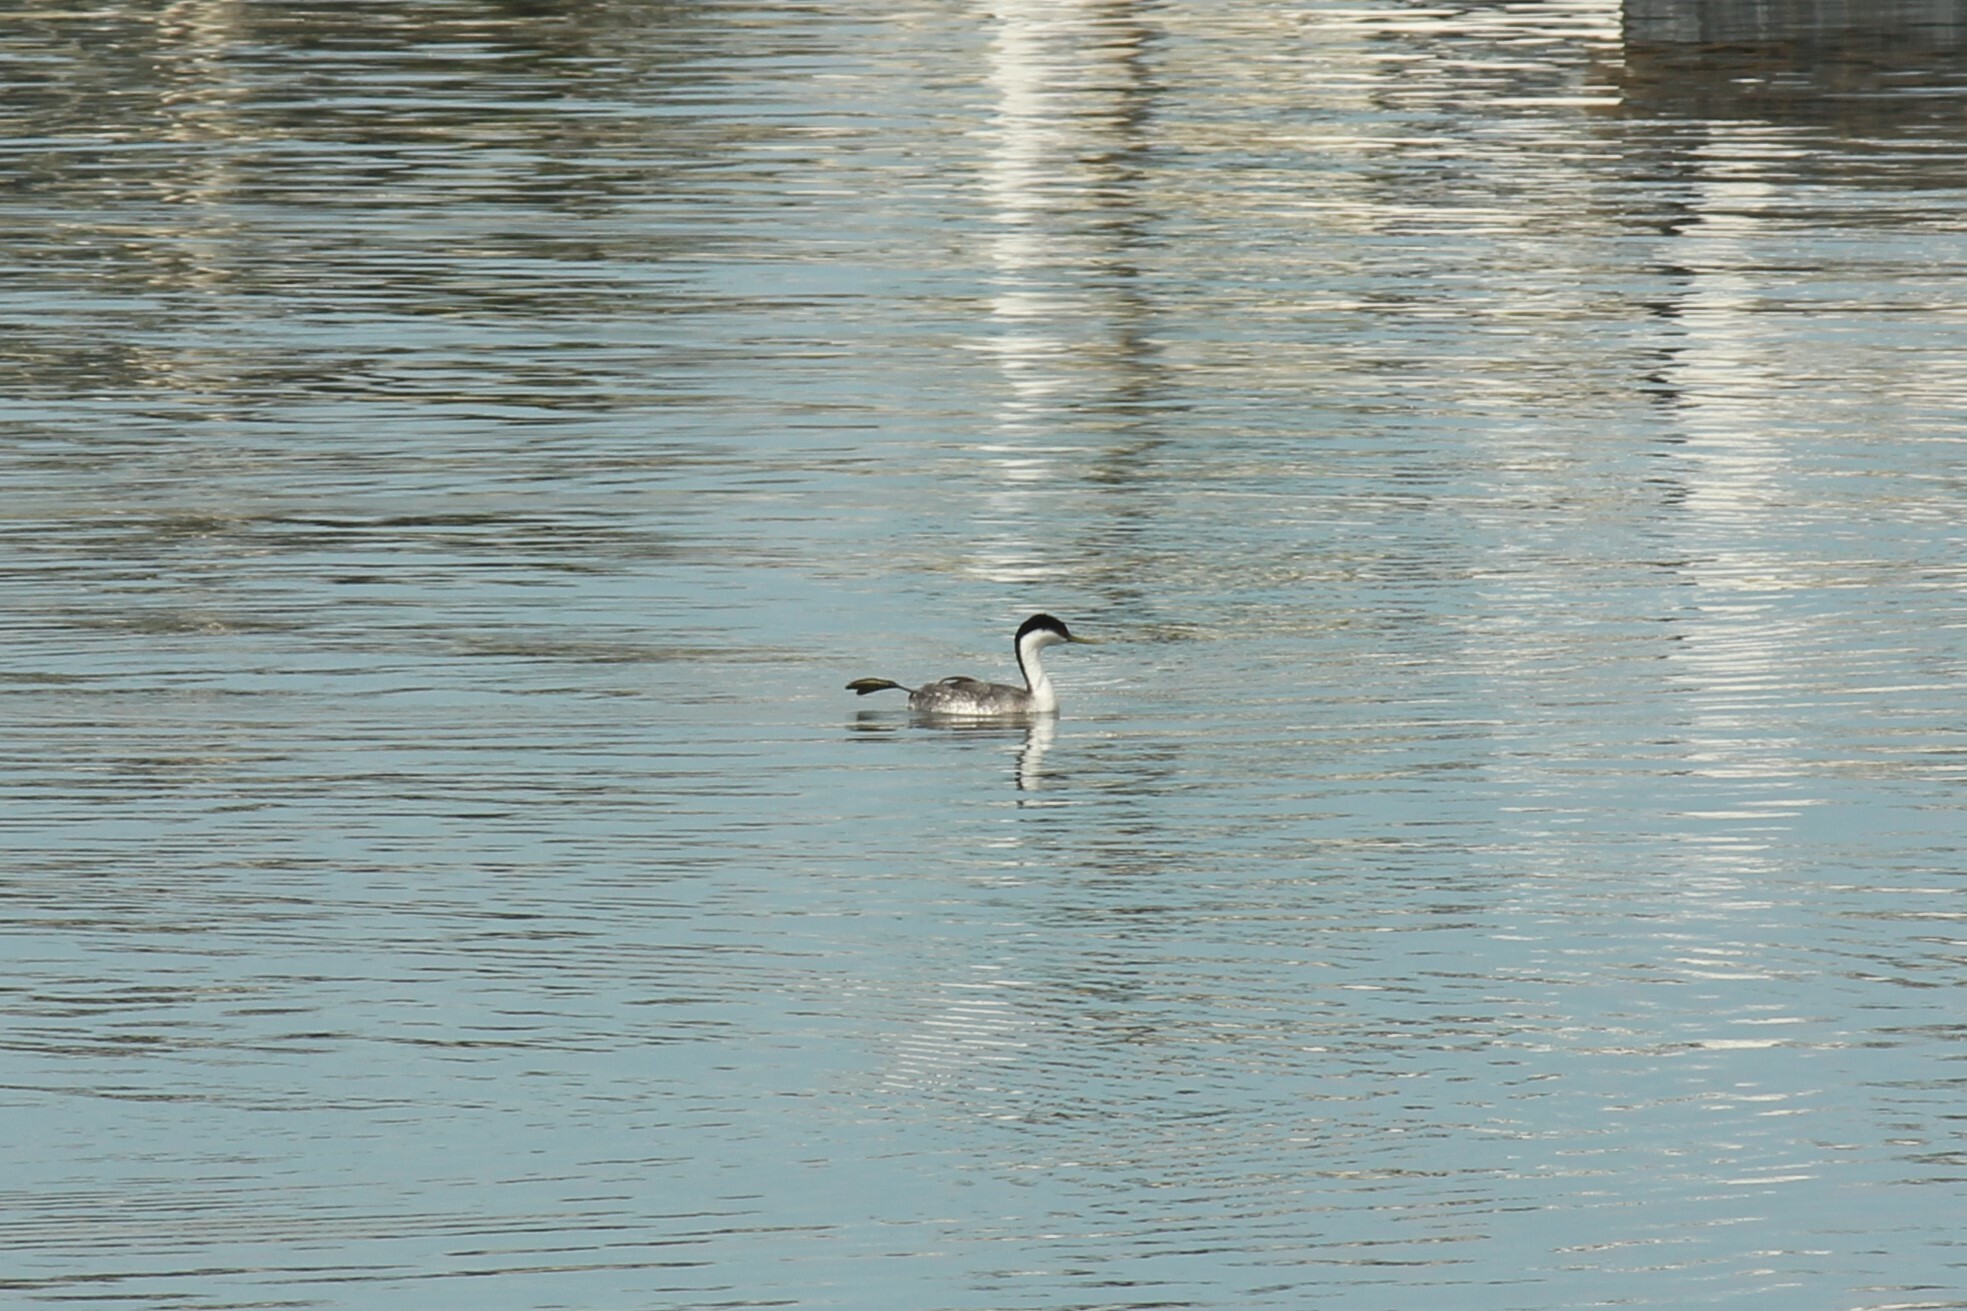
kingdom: Animalia
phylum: Chordata
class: Aves
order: Podicipediformes
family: Podicipedidae
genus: Aechmophorus
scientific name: Aechmophorus occidentalis
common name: Western grebe
